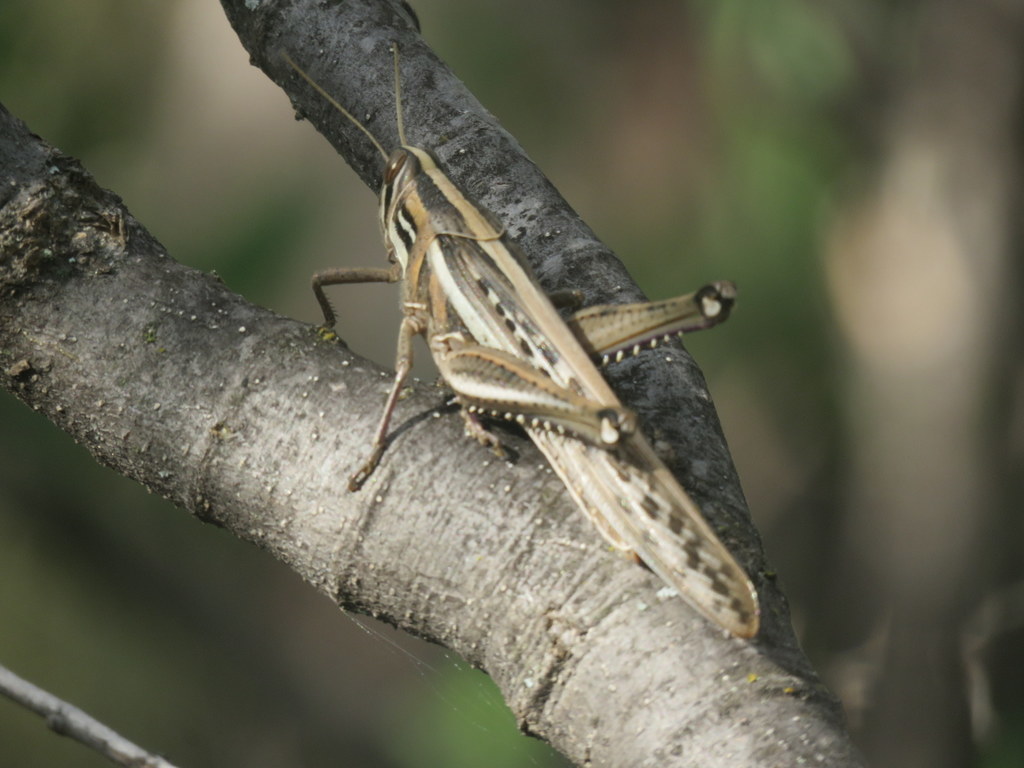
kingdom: Animalia
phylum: Arthropoda
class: Insecta
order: Orthoptera
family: Acrididae
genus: Schistocerca
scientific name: Schistocerca cancellata
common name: South american locust
